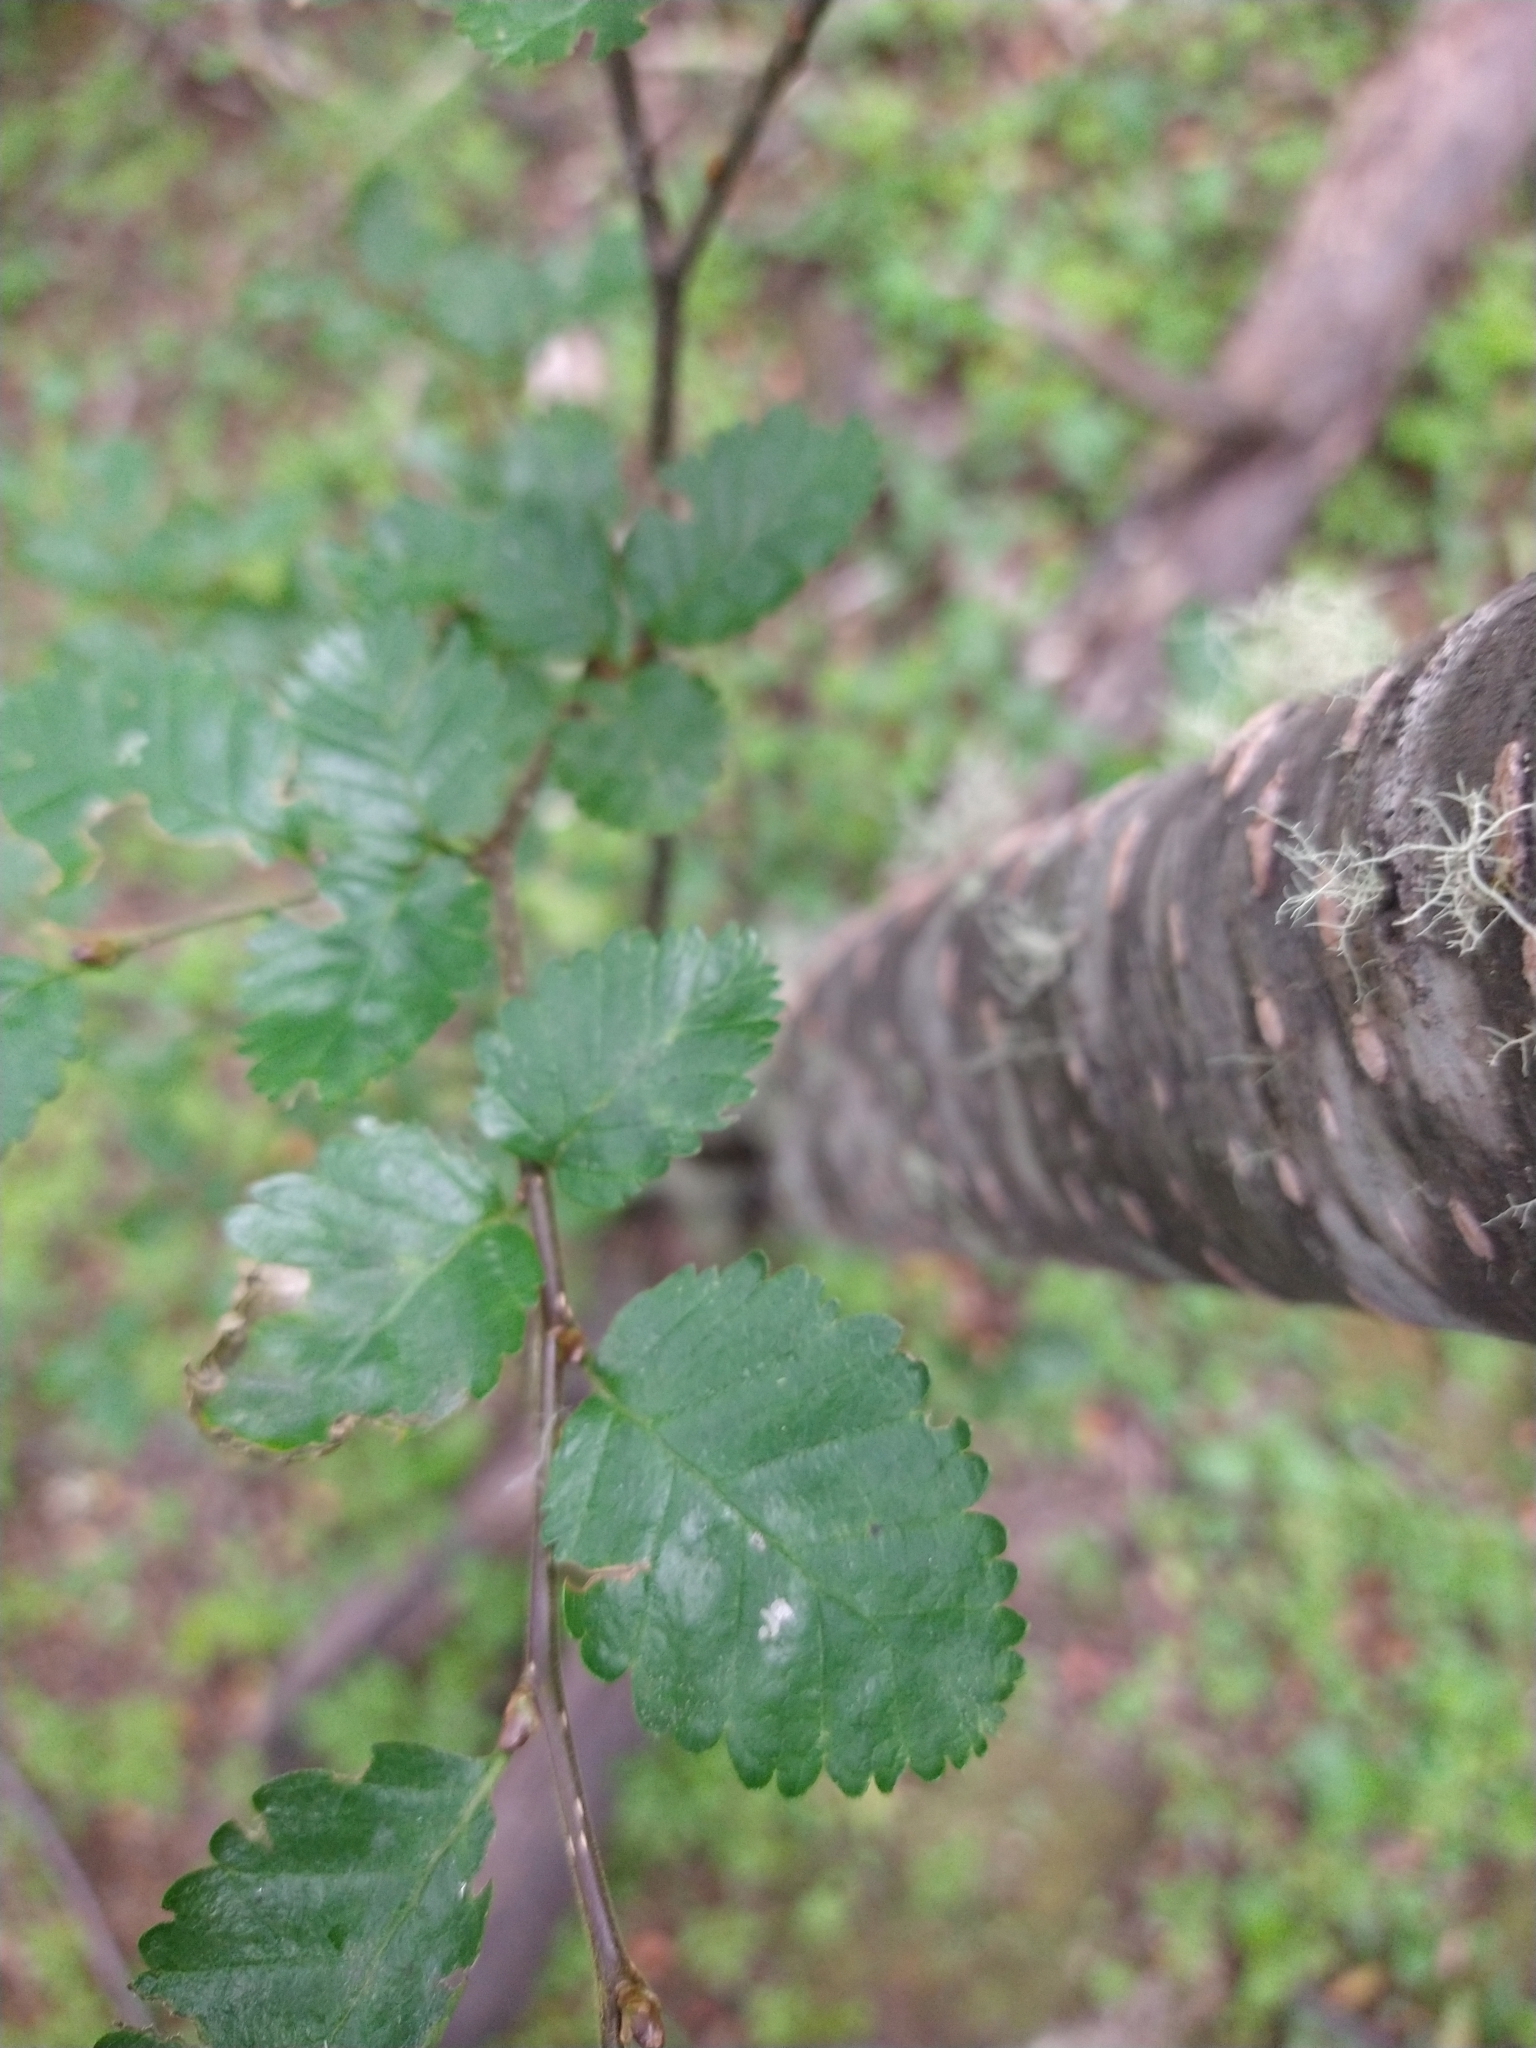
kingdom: Plantae
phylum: Tracheophyta
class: Magnoliopsida
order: Fagales
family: Nothofagaceae
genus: Nothofagus
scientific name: Nothofagus pumilio
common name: Lenga beech
